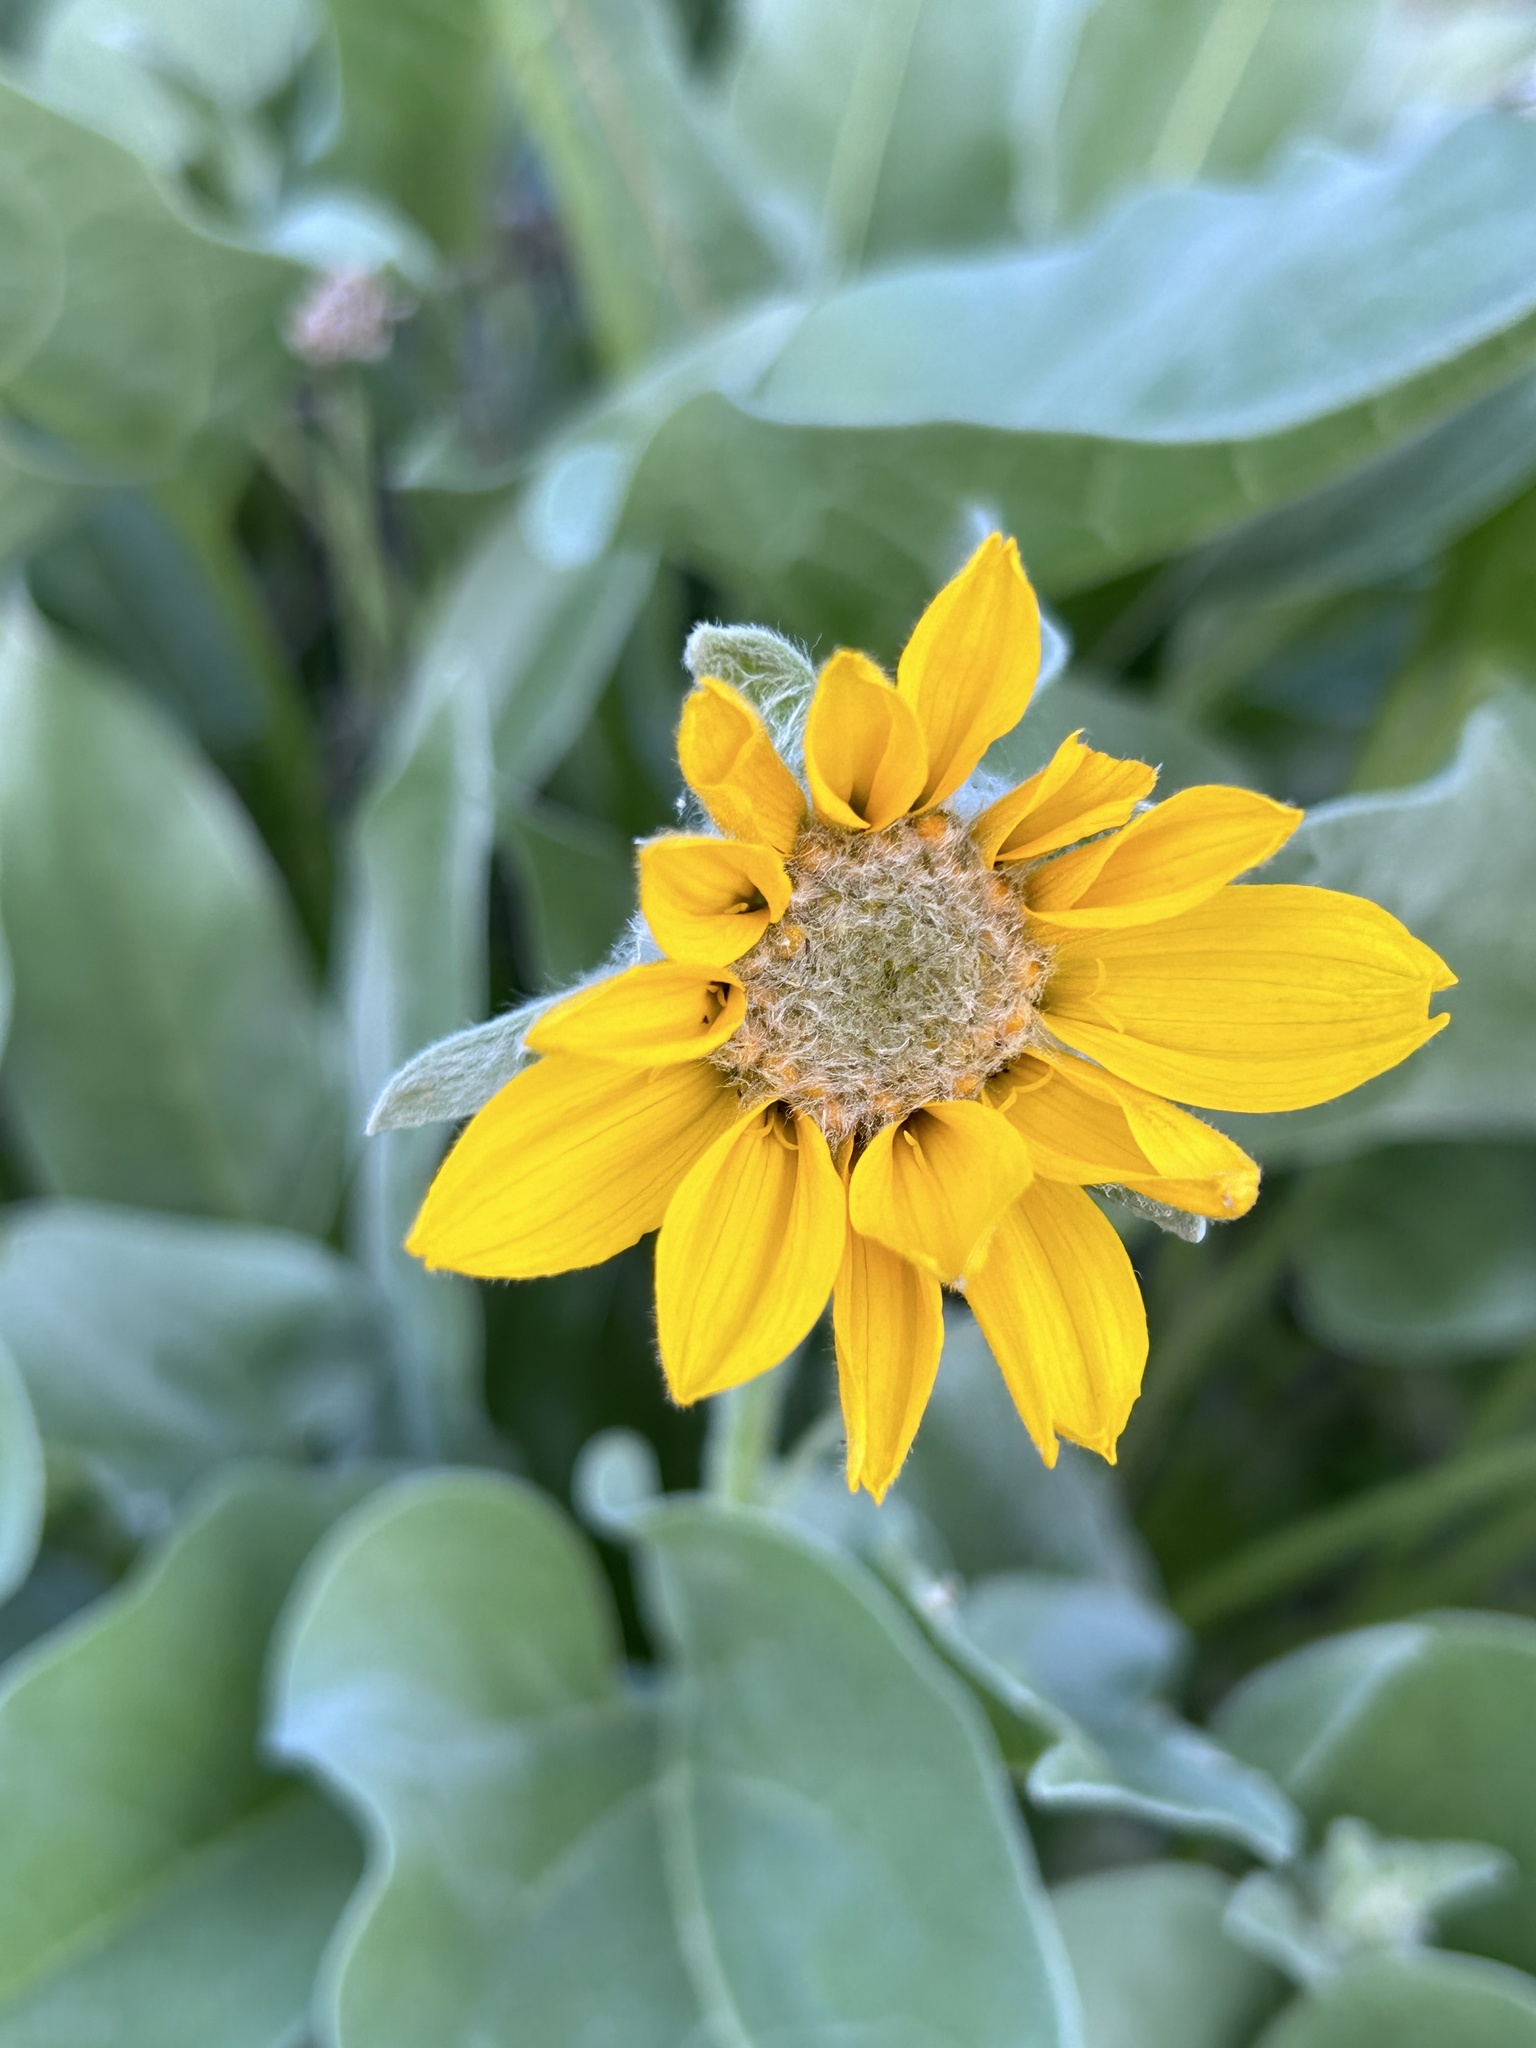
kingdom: Plantae
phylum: Tracheophyta
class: Magnoliopsida
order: Asterales
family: Asteraceae
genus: Wyethia
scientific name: Wyethia sagittata
